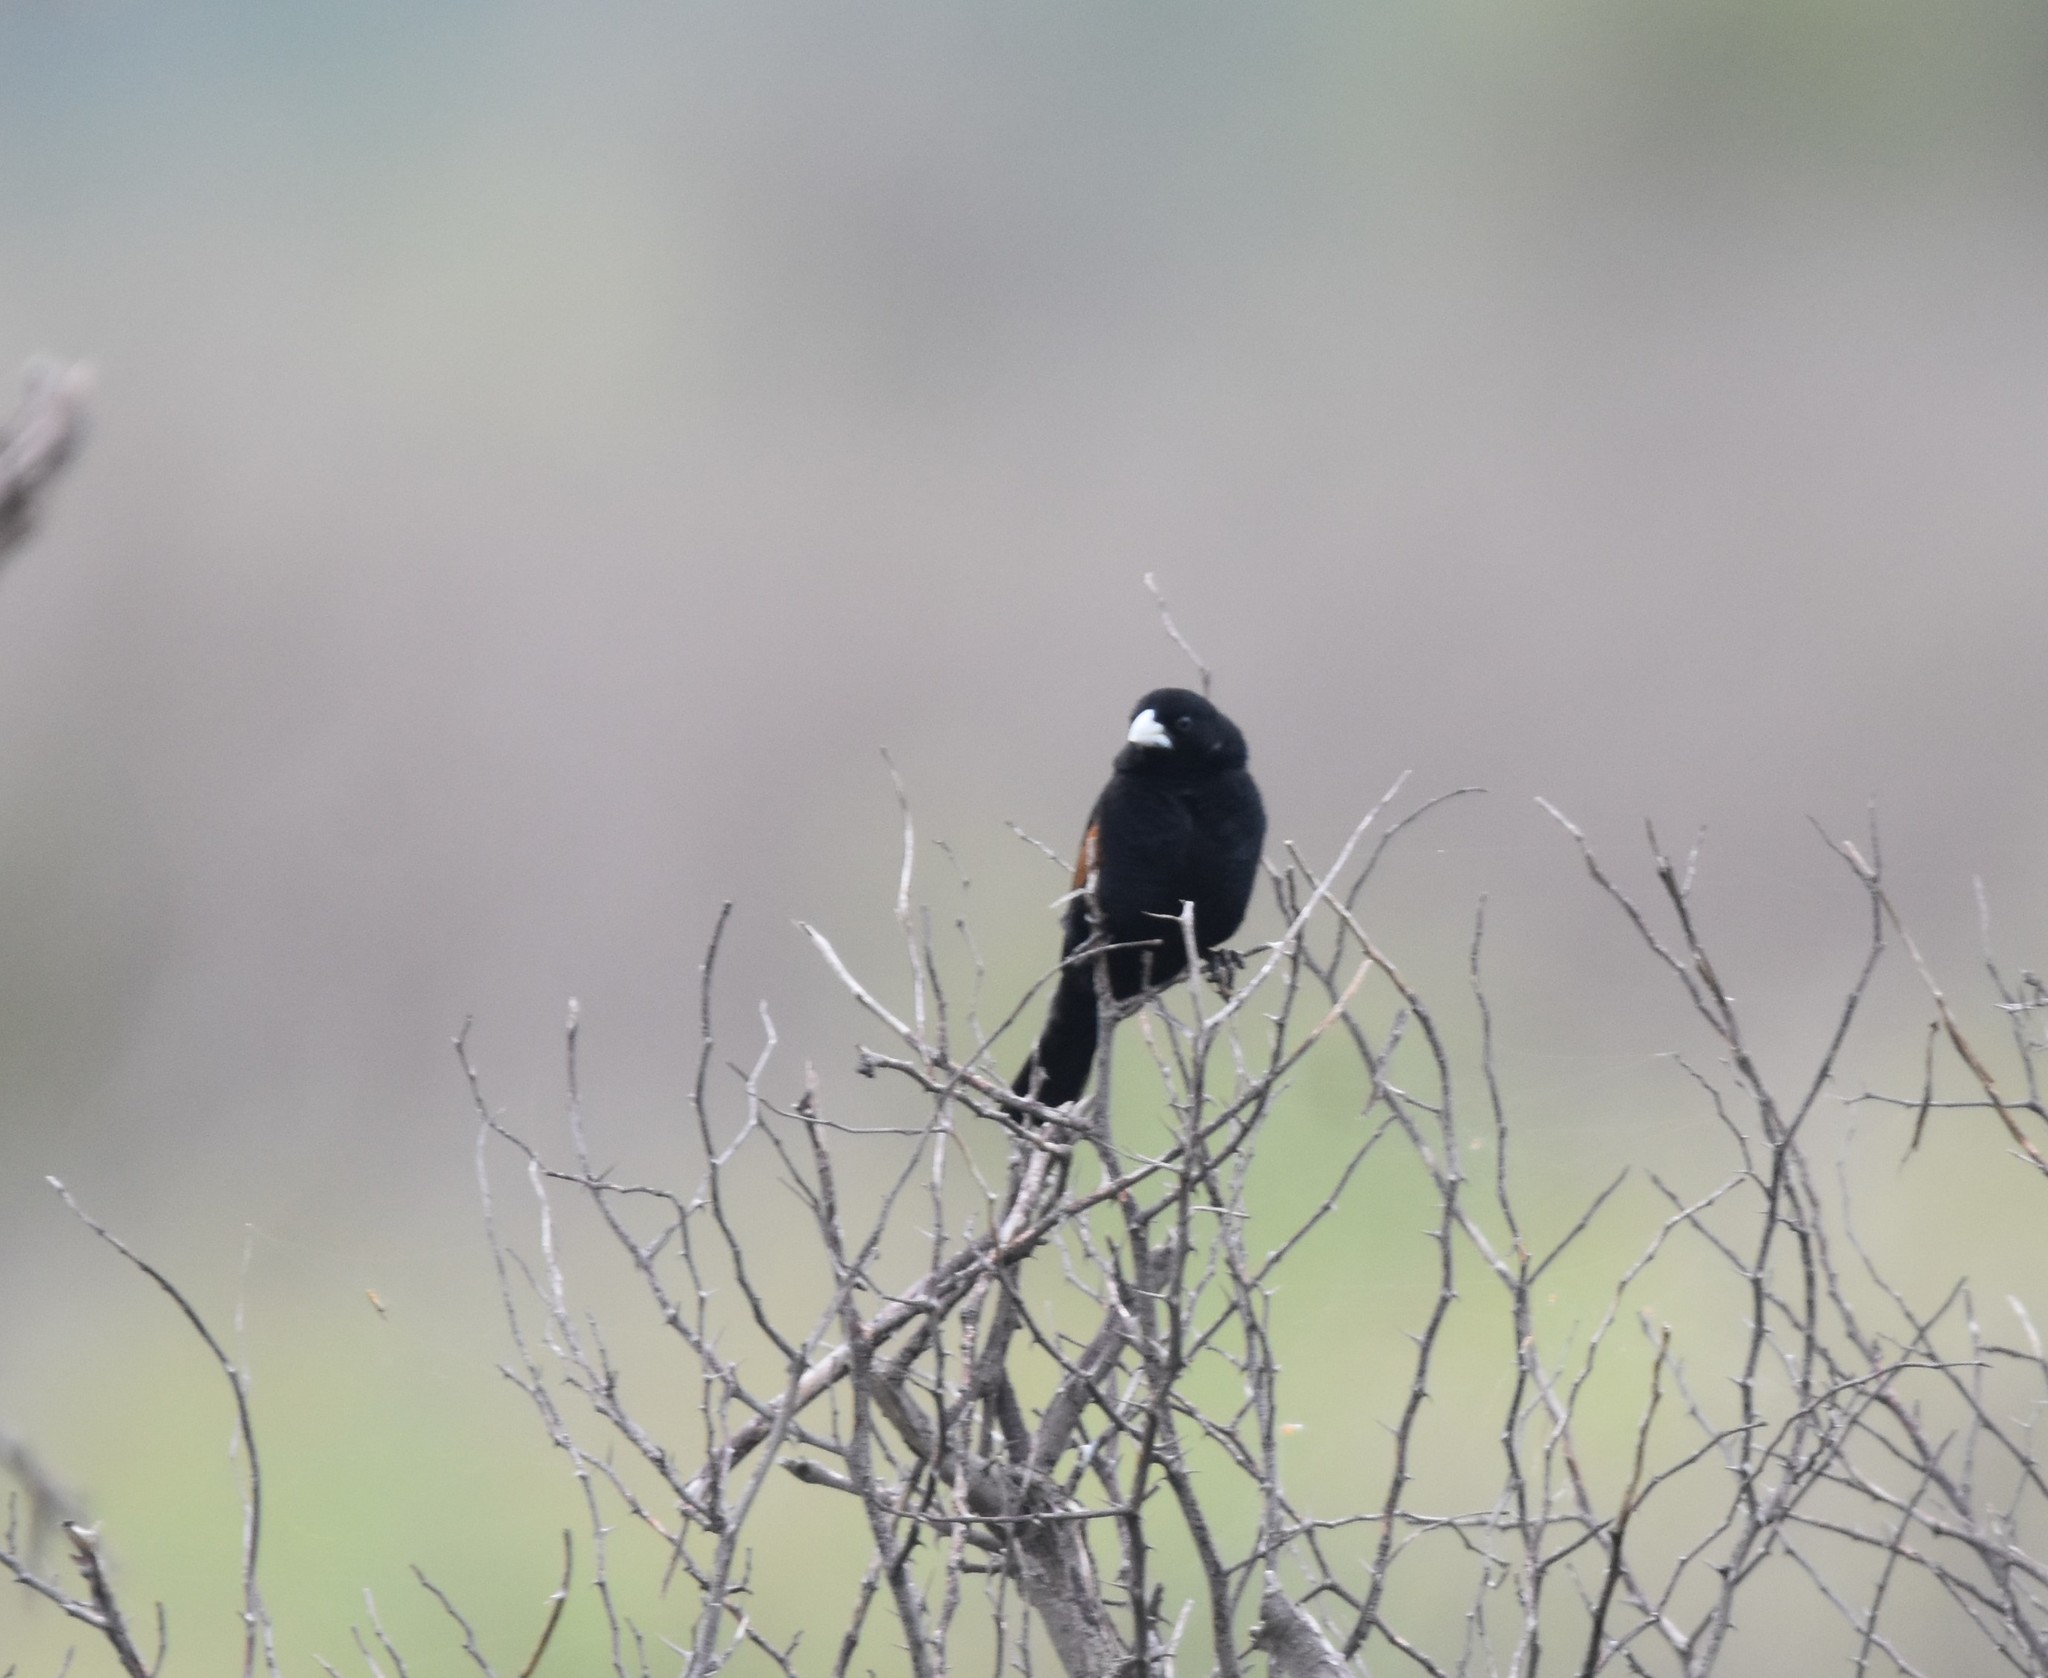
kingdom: Animalia
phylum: Chordata
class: Aves
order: Passeriformes
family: Ploceidae
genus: Euplectes
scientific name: Euplectes axillaris
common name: Fan-tailed widowbird
